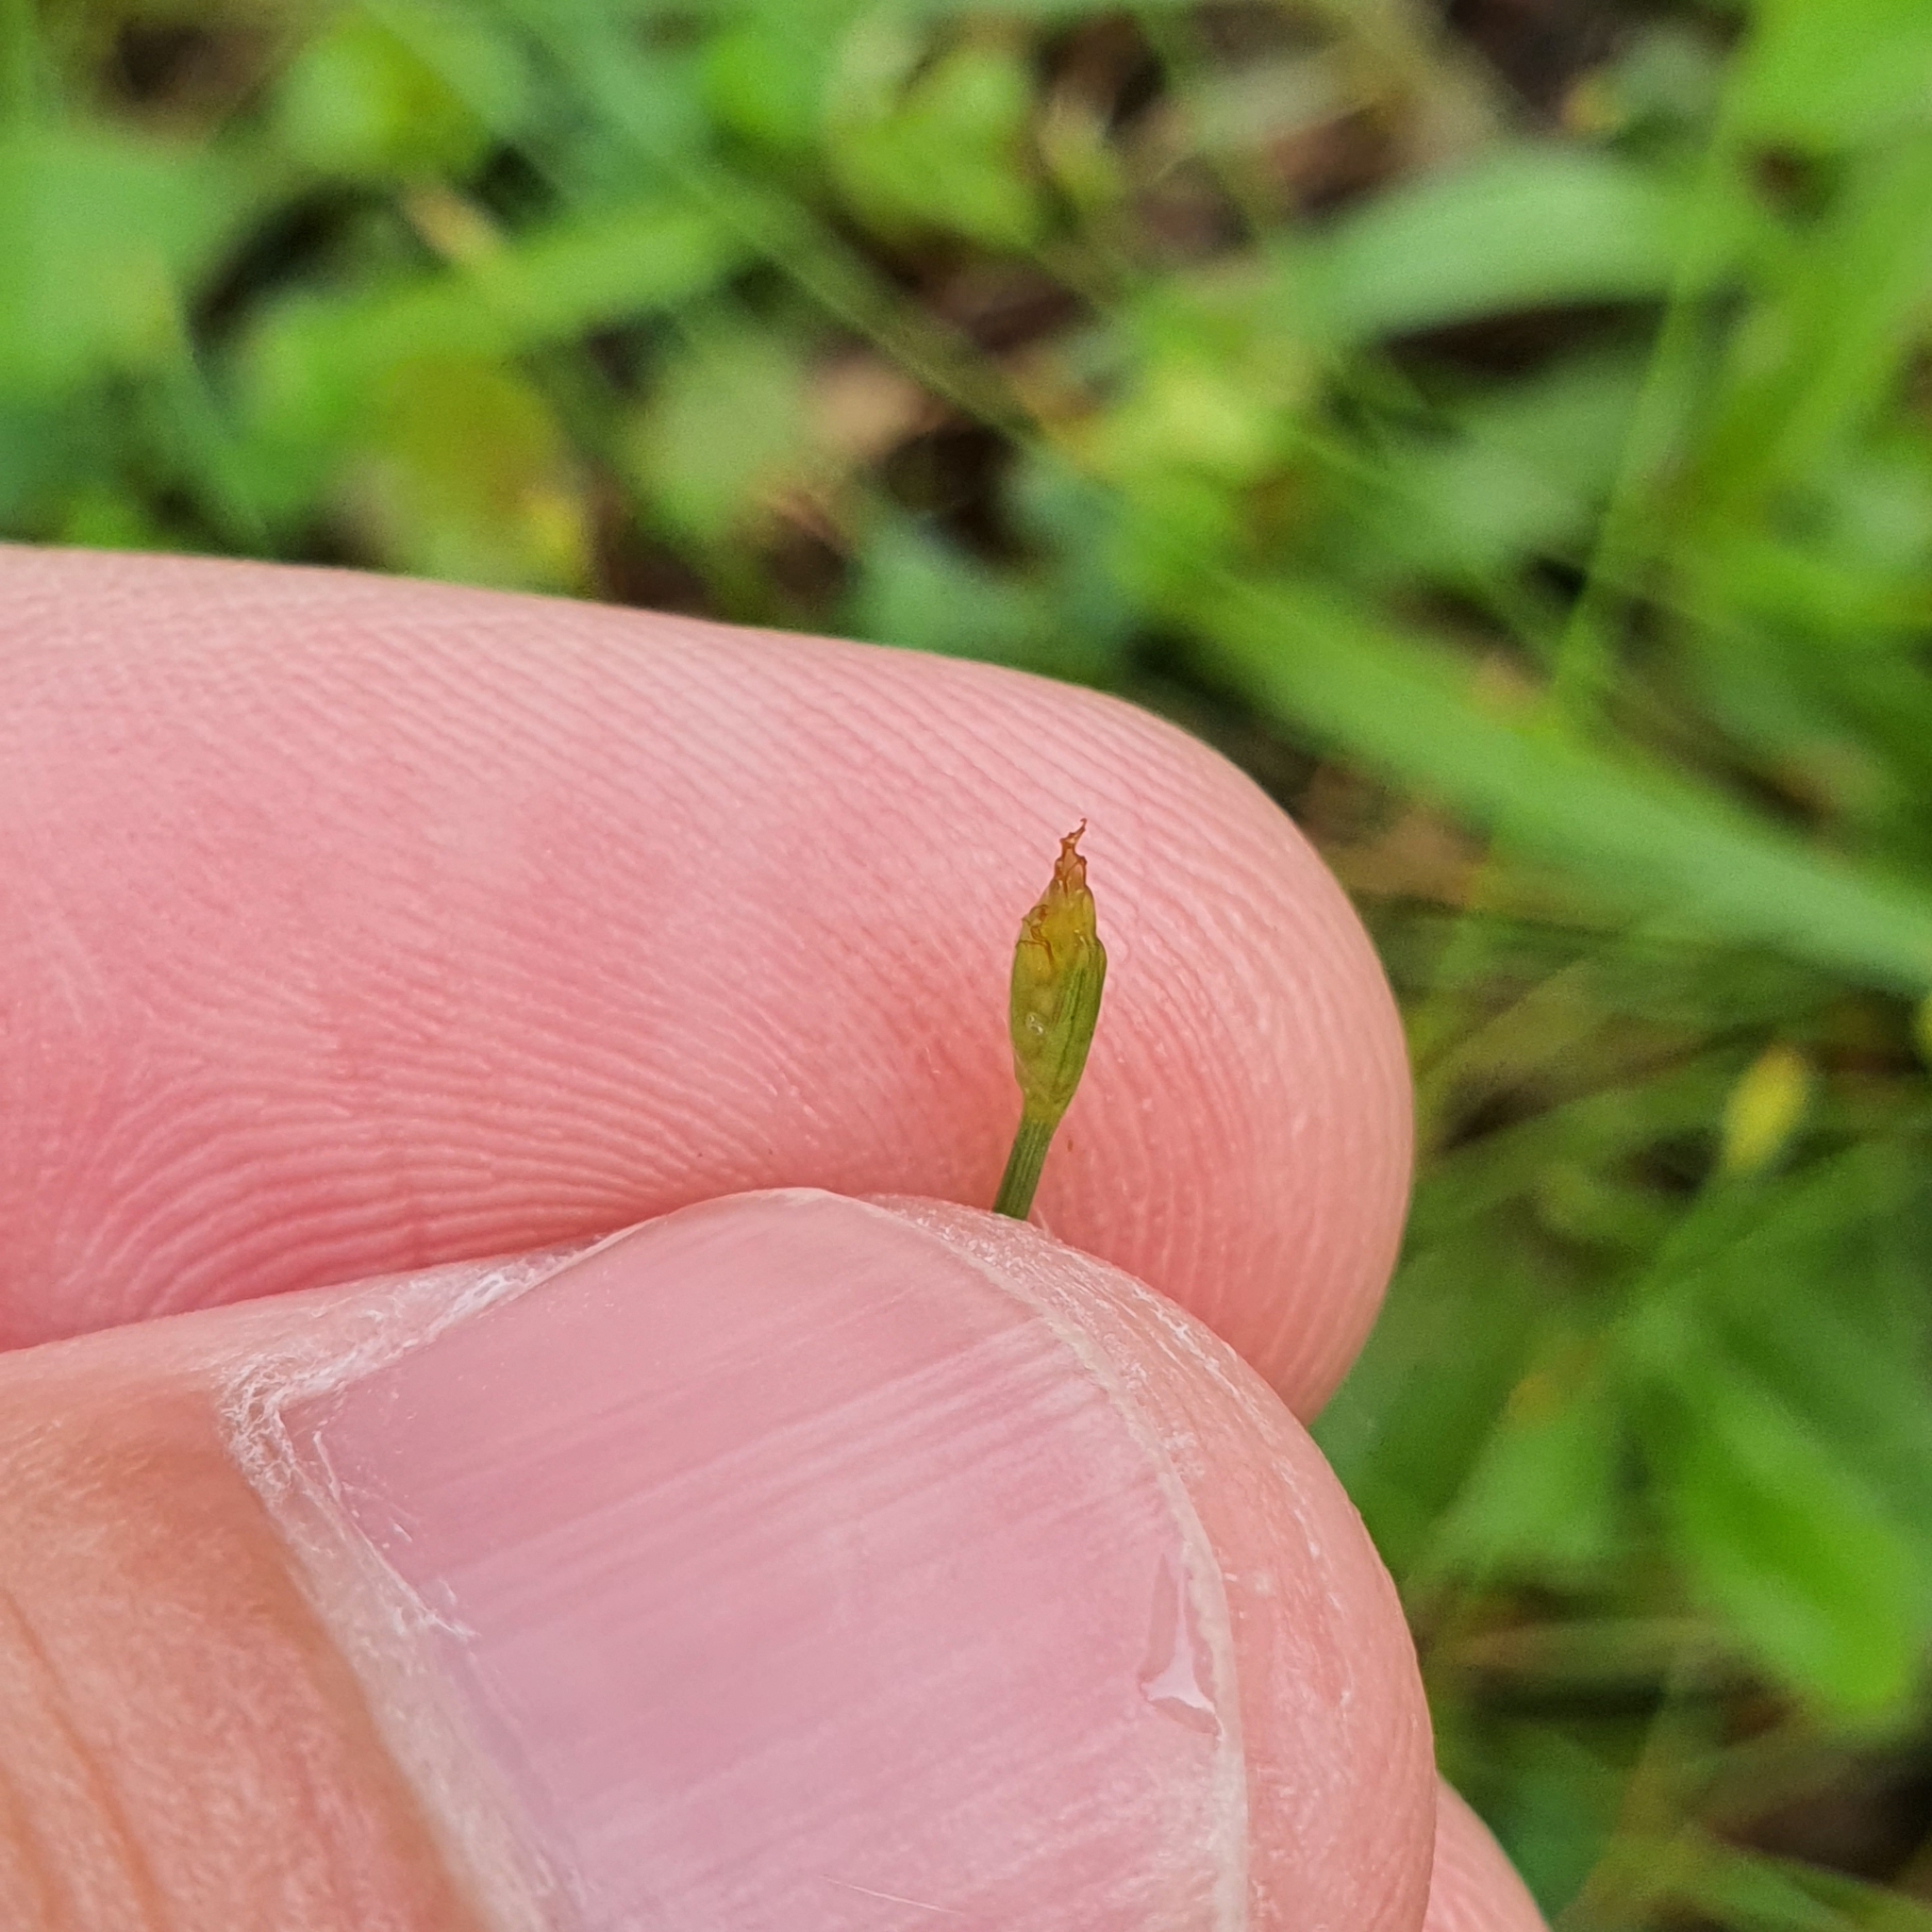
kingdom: Plantae
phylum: Tracheophyta
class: Liliopsida
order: Poales
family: Cyperaceae
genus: Fimbristylis
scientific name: Fimbristylis acuminata
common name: Pointed fimbristylis
